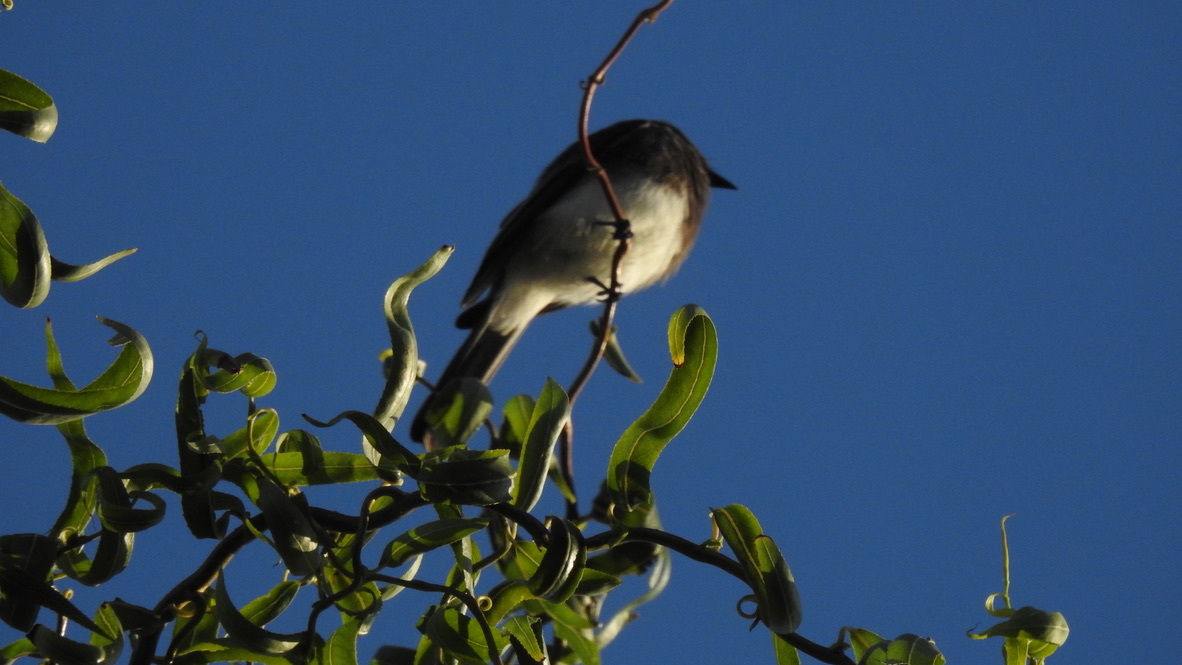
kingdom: Animalia
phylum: Chordata
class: Aves
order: Passeriformes
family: Tyrannidae
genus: Sayornis
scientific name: Sayornis nigricans
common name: Black phoebe
